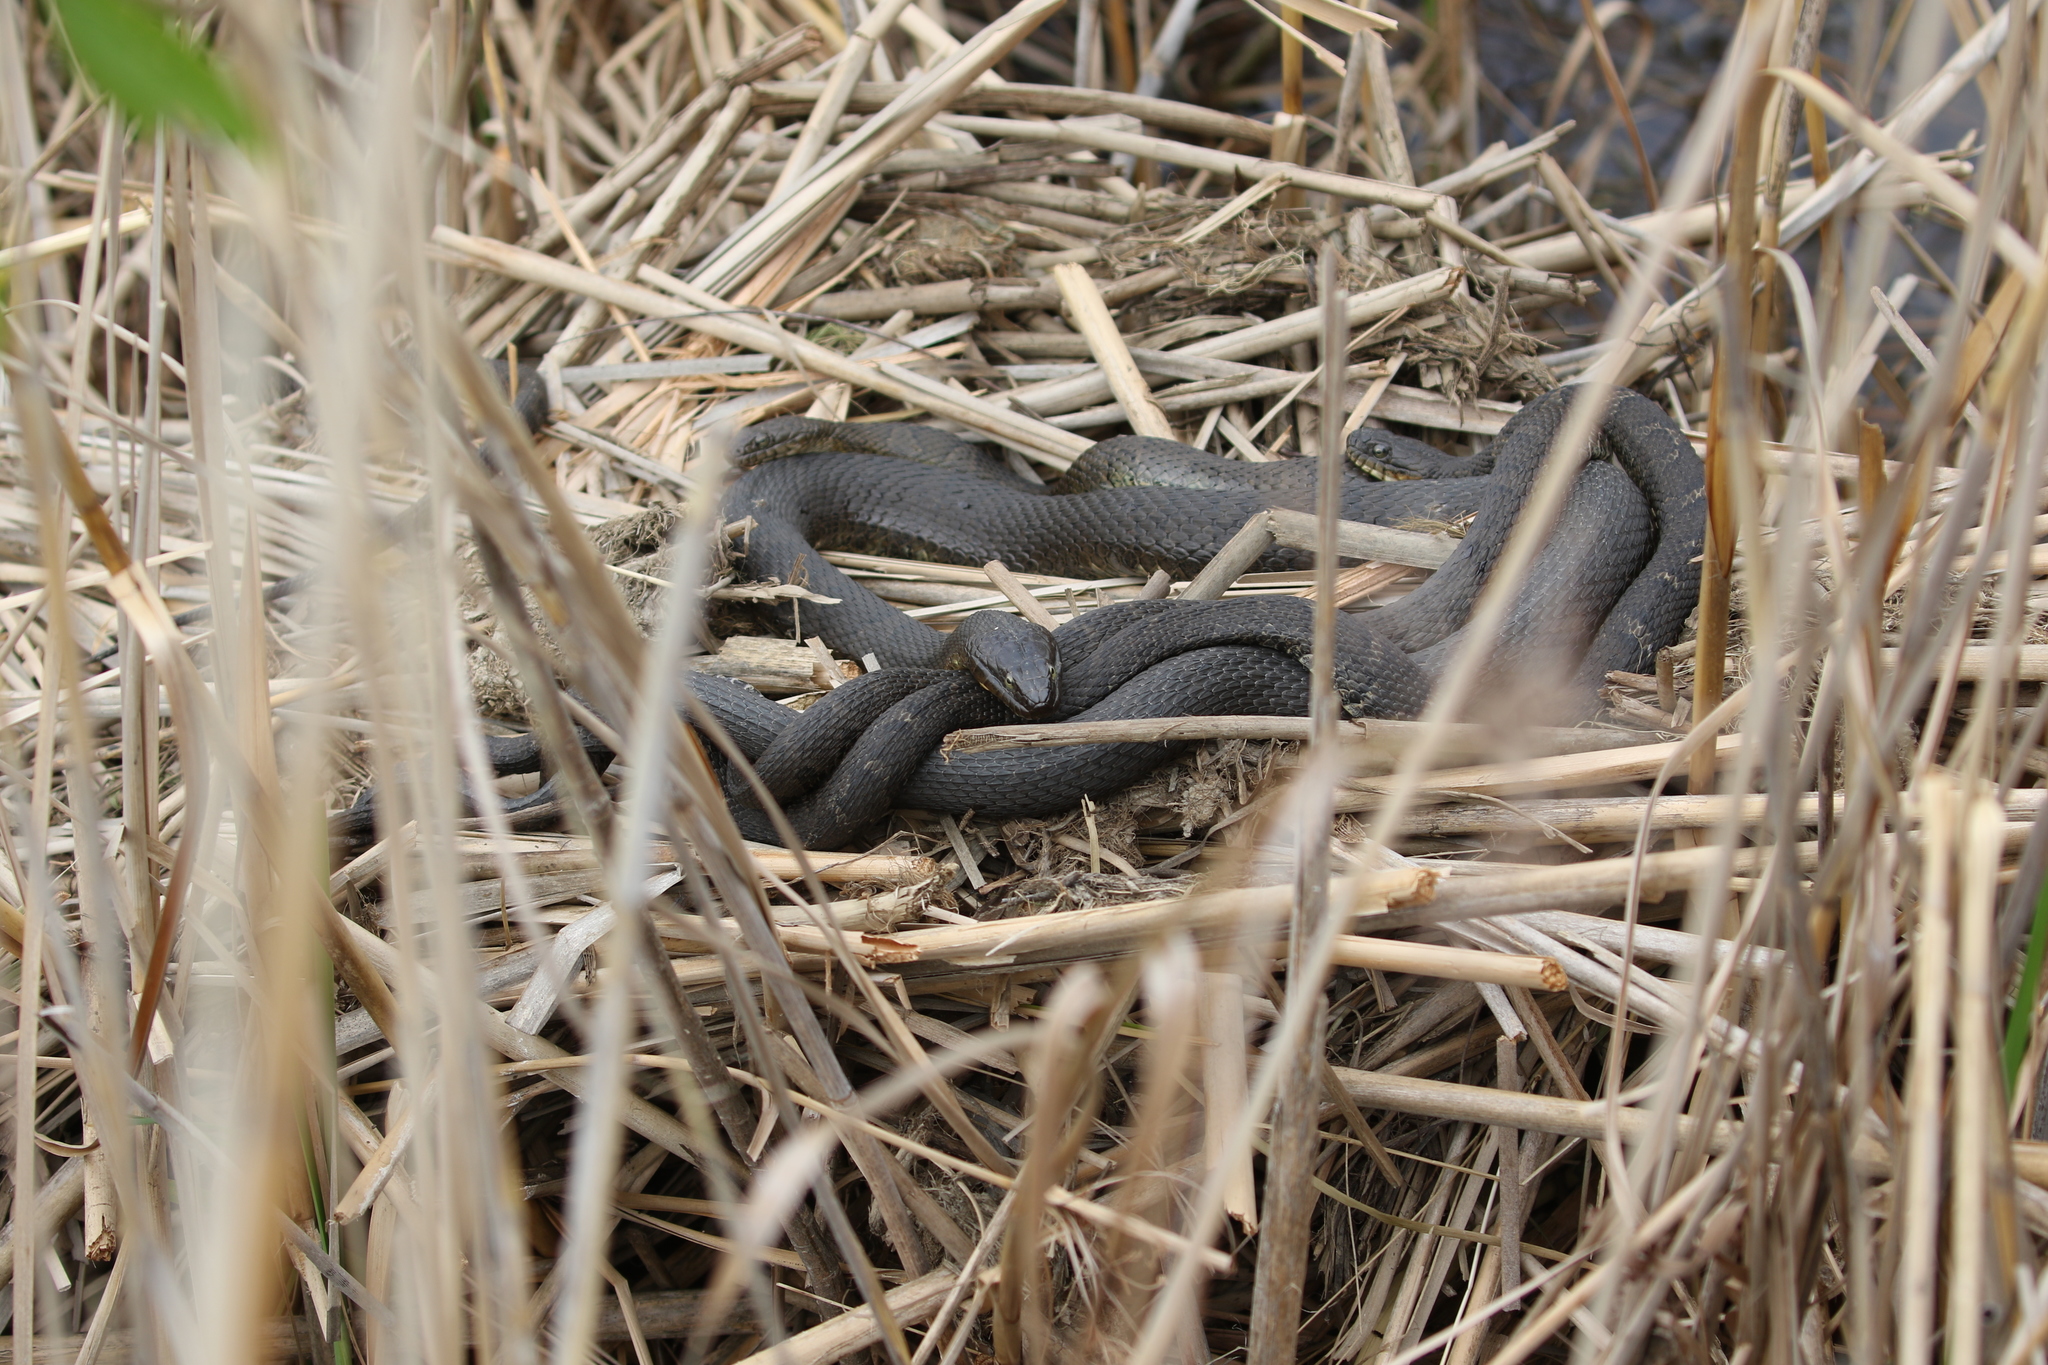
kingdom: Animalia
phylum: Chordata
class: Squamata
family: Colubridae
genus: Nerodia
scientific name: Nerodia sipedon
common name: Northern water snake
